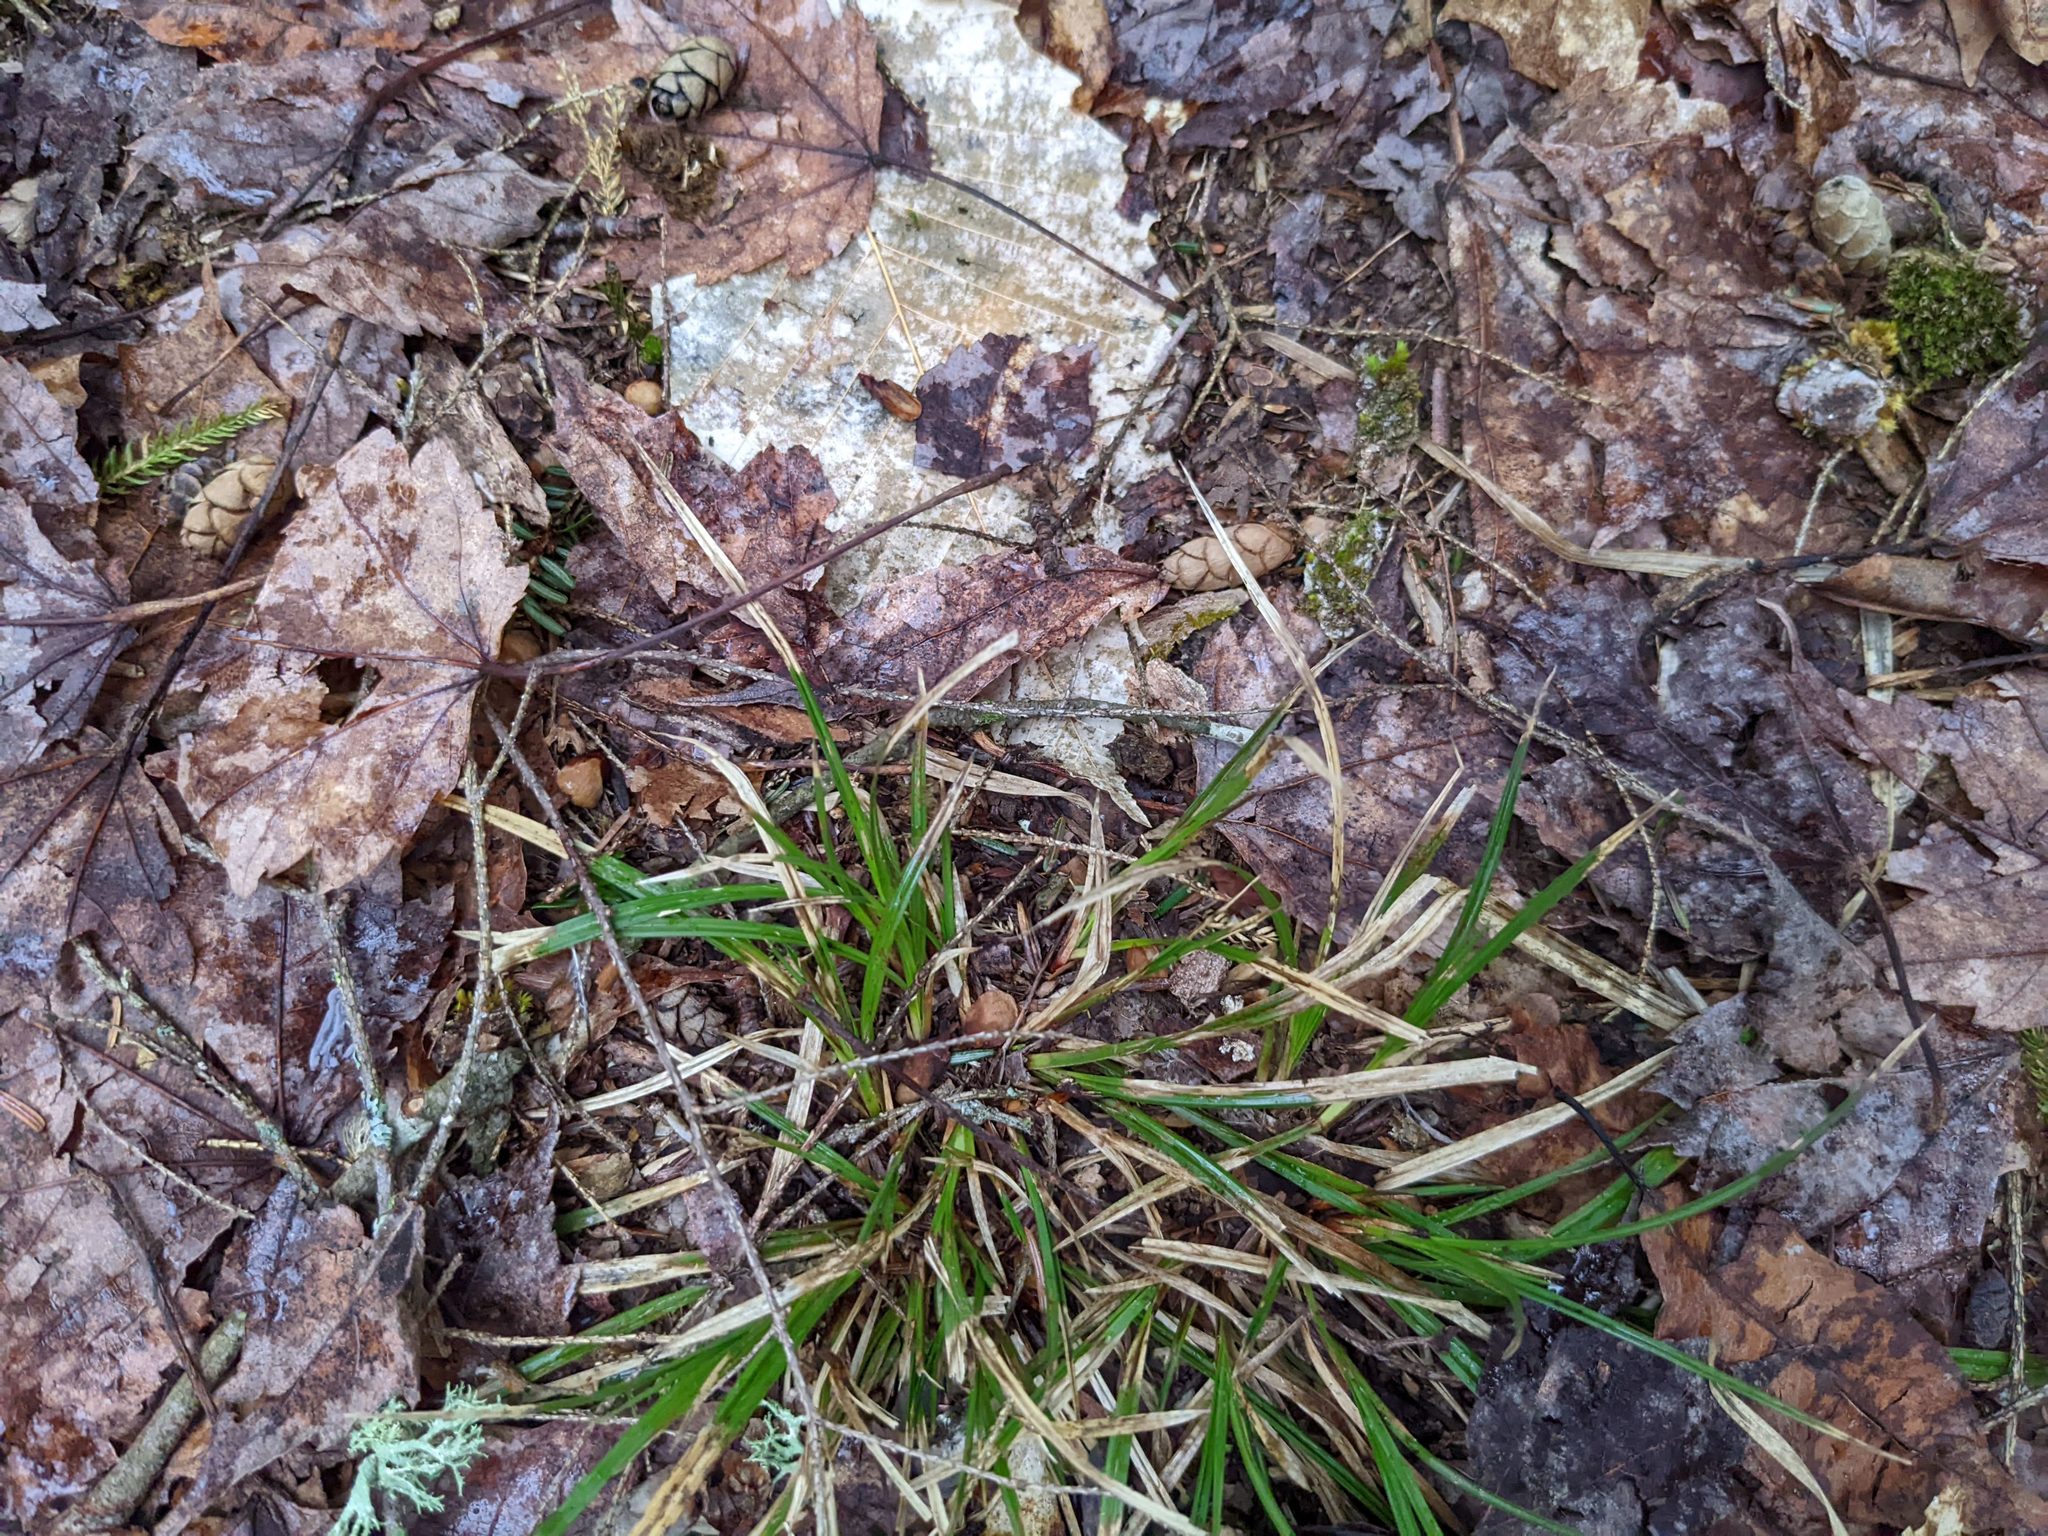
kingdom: Plantae
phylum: Tracheophyta
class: Magnoliopsida
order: Fagales
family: Fagaceae
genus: Fagus
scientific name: Fagus grandifolia
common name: American beech
